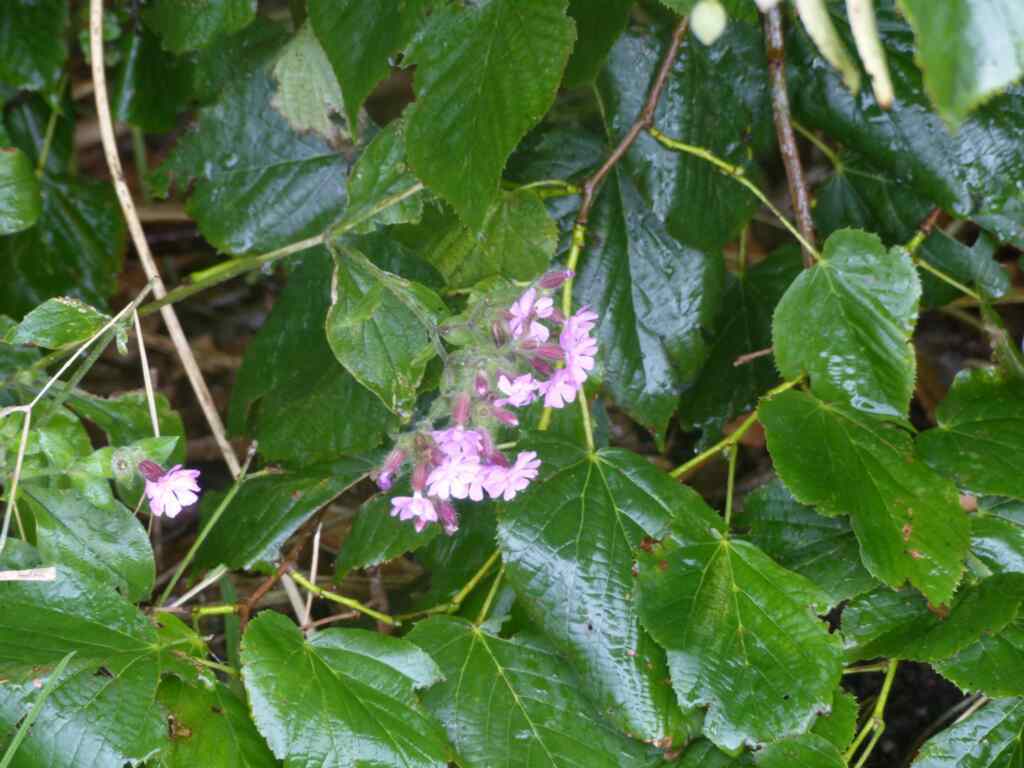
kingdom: Plantae
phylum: Tracheophyta
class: Magnoliopsida
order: Caryophyllales
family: Caryophyllaceae
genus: Silene
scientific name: Silene dioica
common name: Red campion
